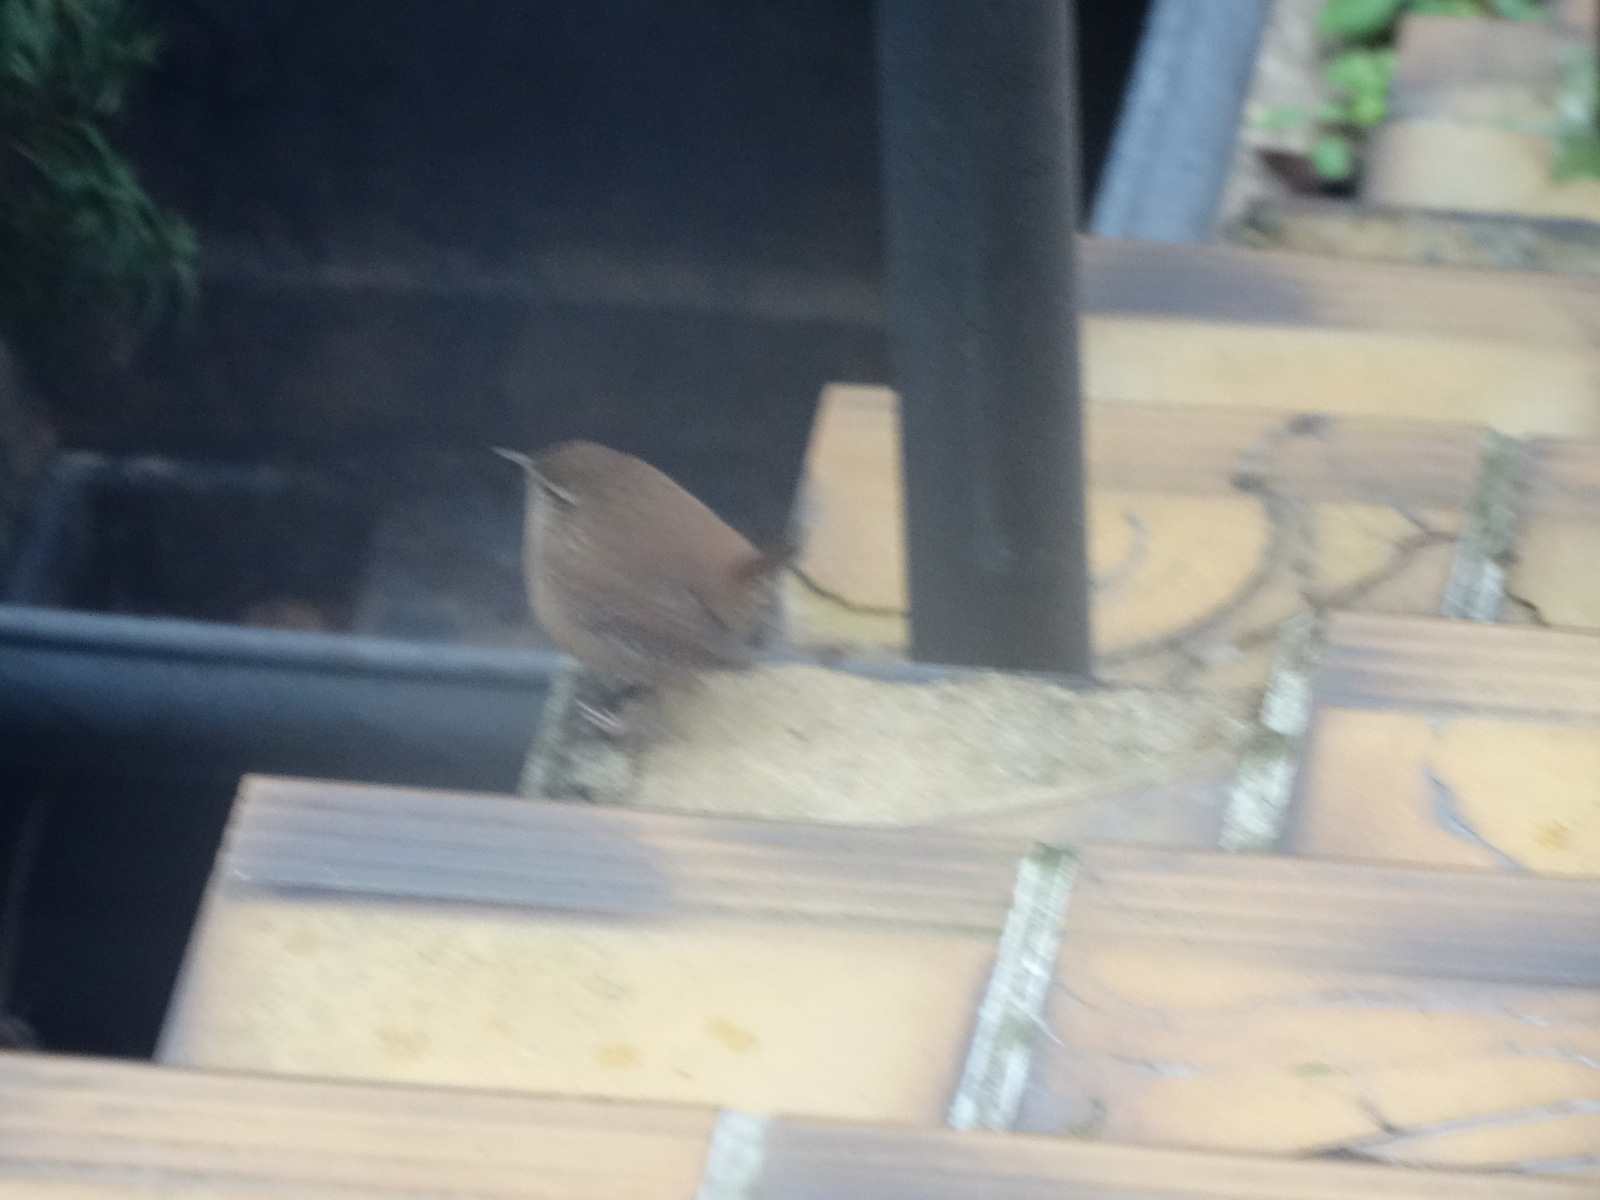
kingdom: Animalia
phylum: Chordata
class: Aves
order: Passeriformes
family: Troglodytidae
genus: Troglodytes
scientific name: Troglodytes troglodytes
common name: Eurasian wren
